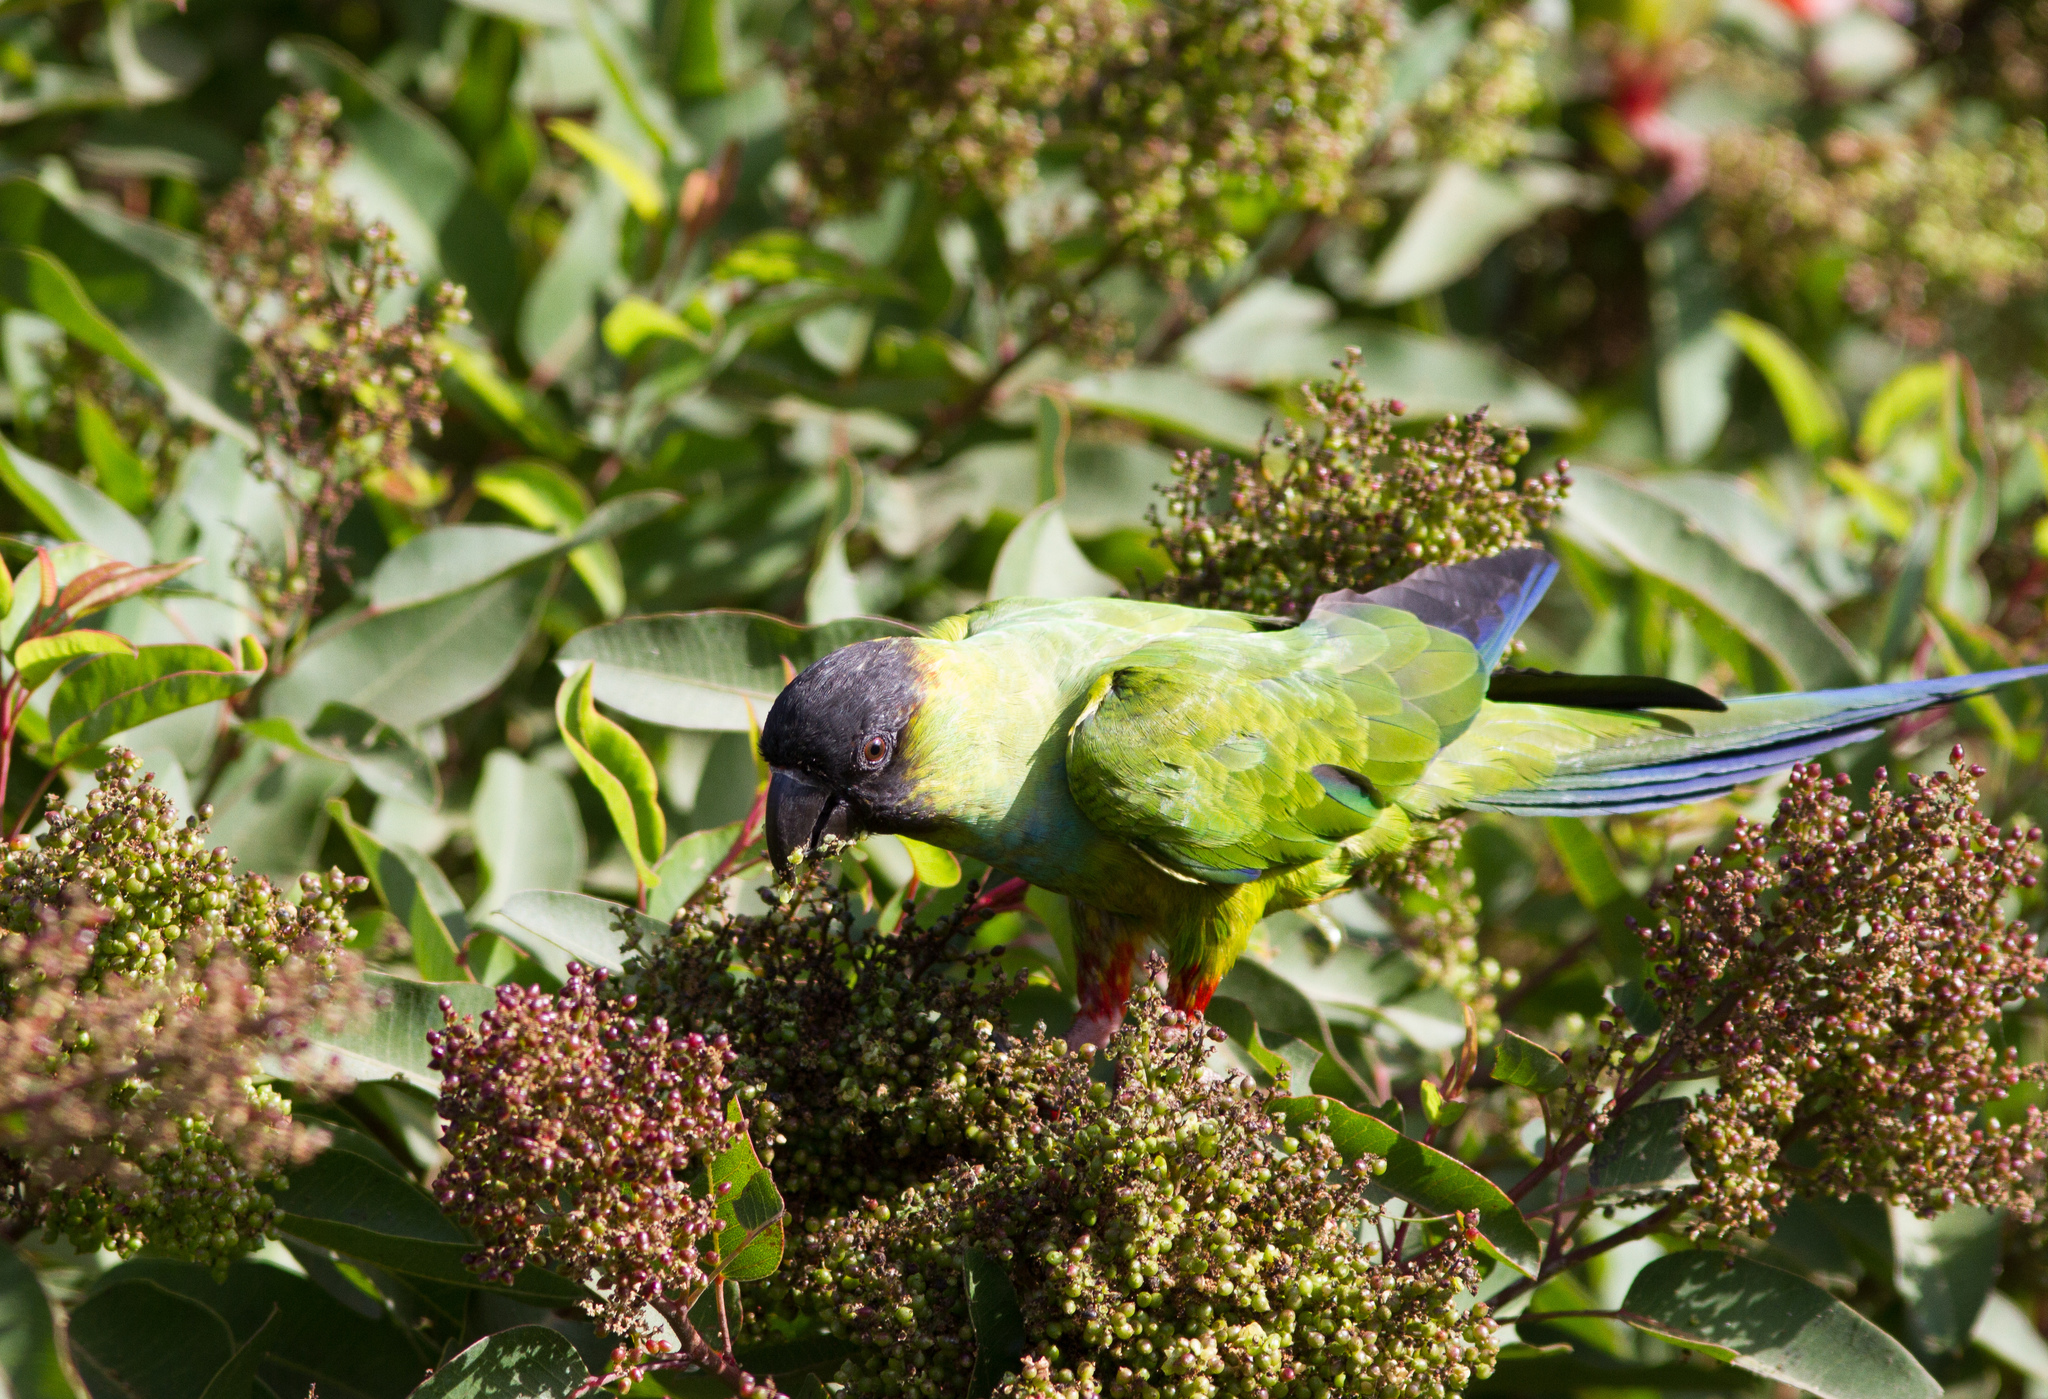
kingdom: Animalia
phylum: Chordata
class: Aves
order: Psittaciformes
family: Psittacidae
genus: Nandayus
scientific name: Nandayus nenday
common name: Nanday parakeet
